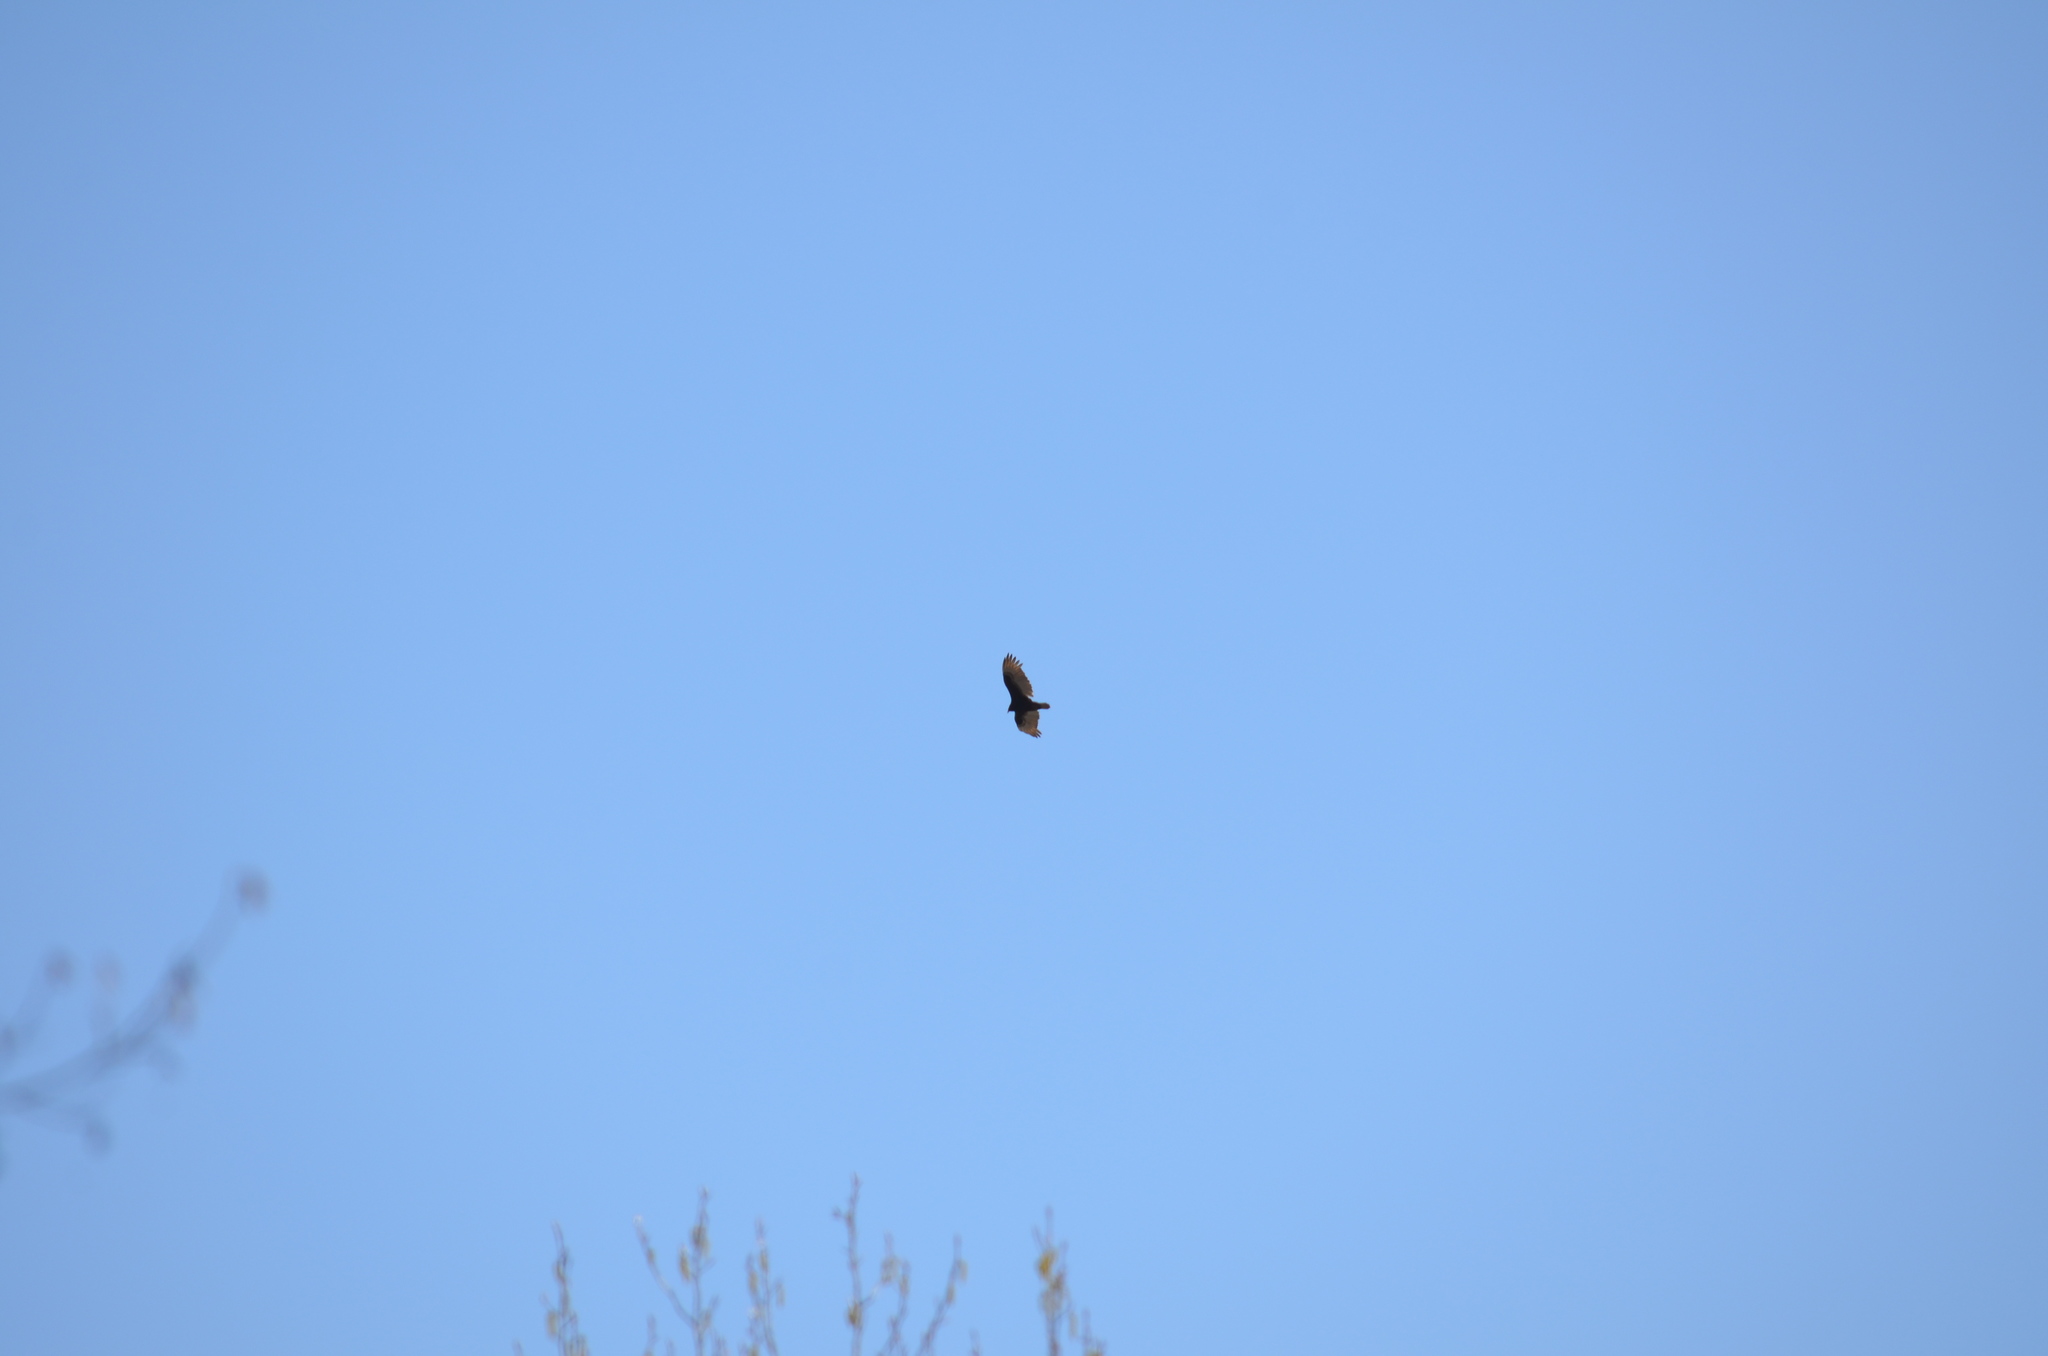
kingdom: Animalia
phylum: Chordata
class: Aves
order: Accipitriformes
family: Cathartidae
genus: Cathartes
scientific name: Cathartes aura
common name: Turkey vulture
